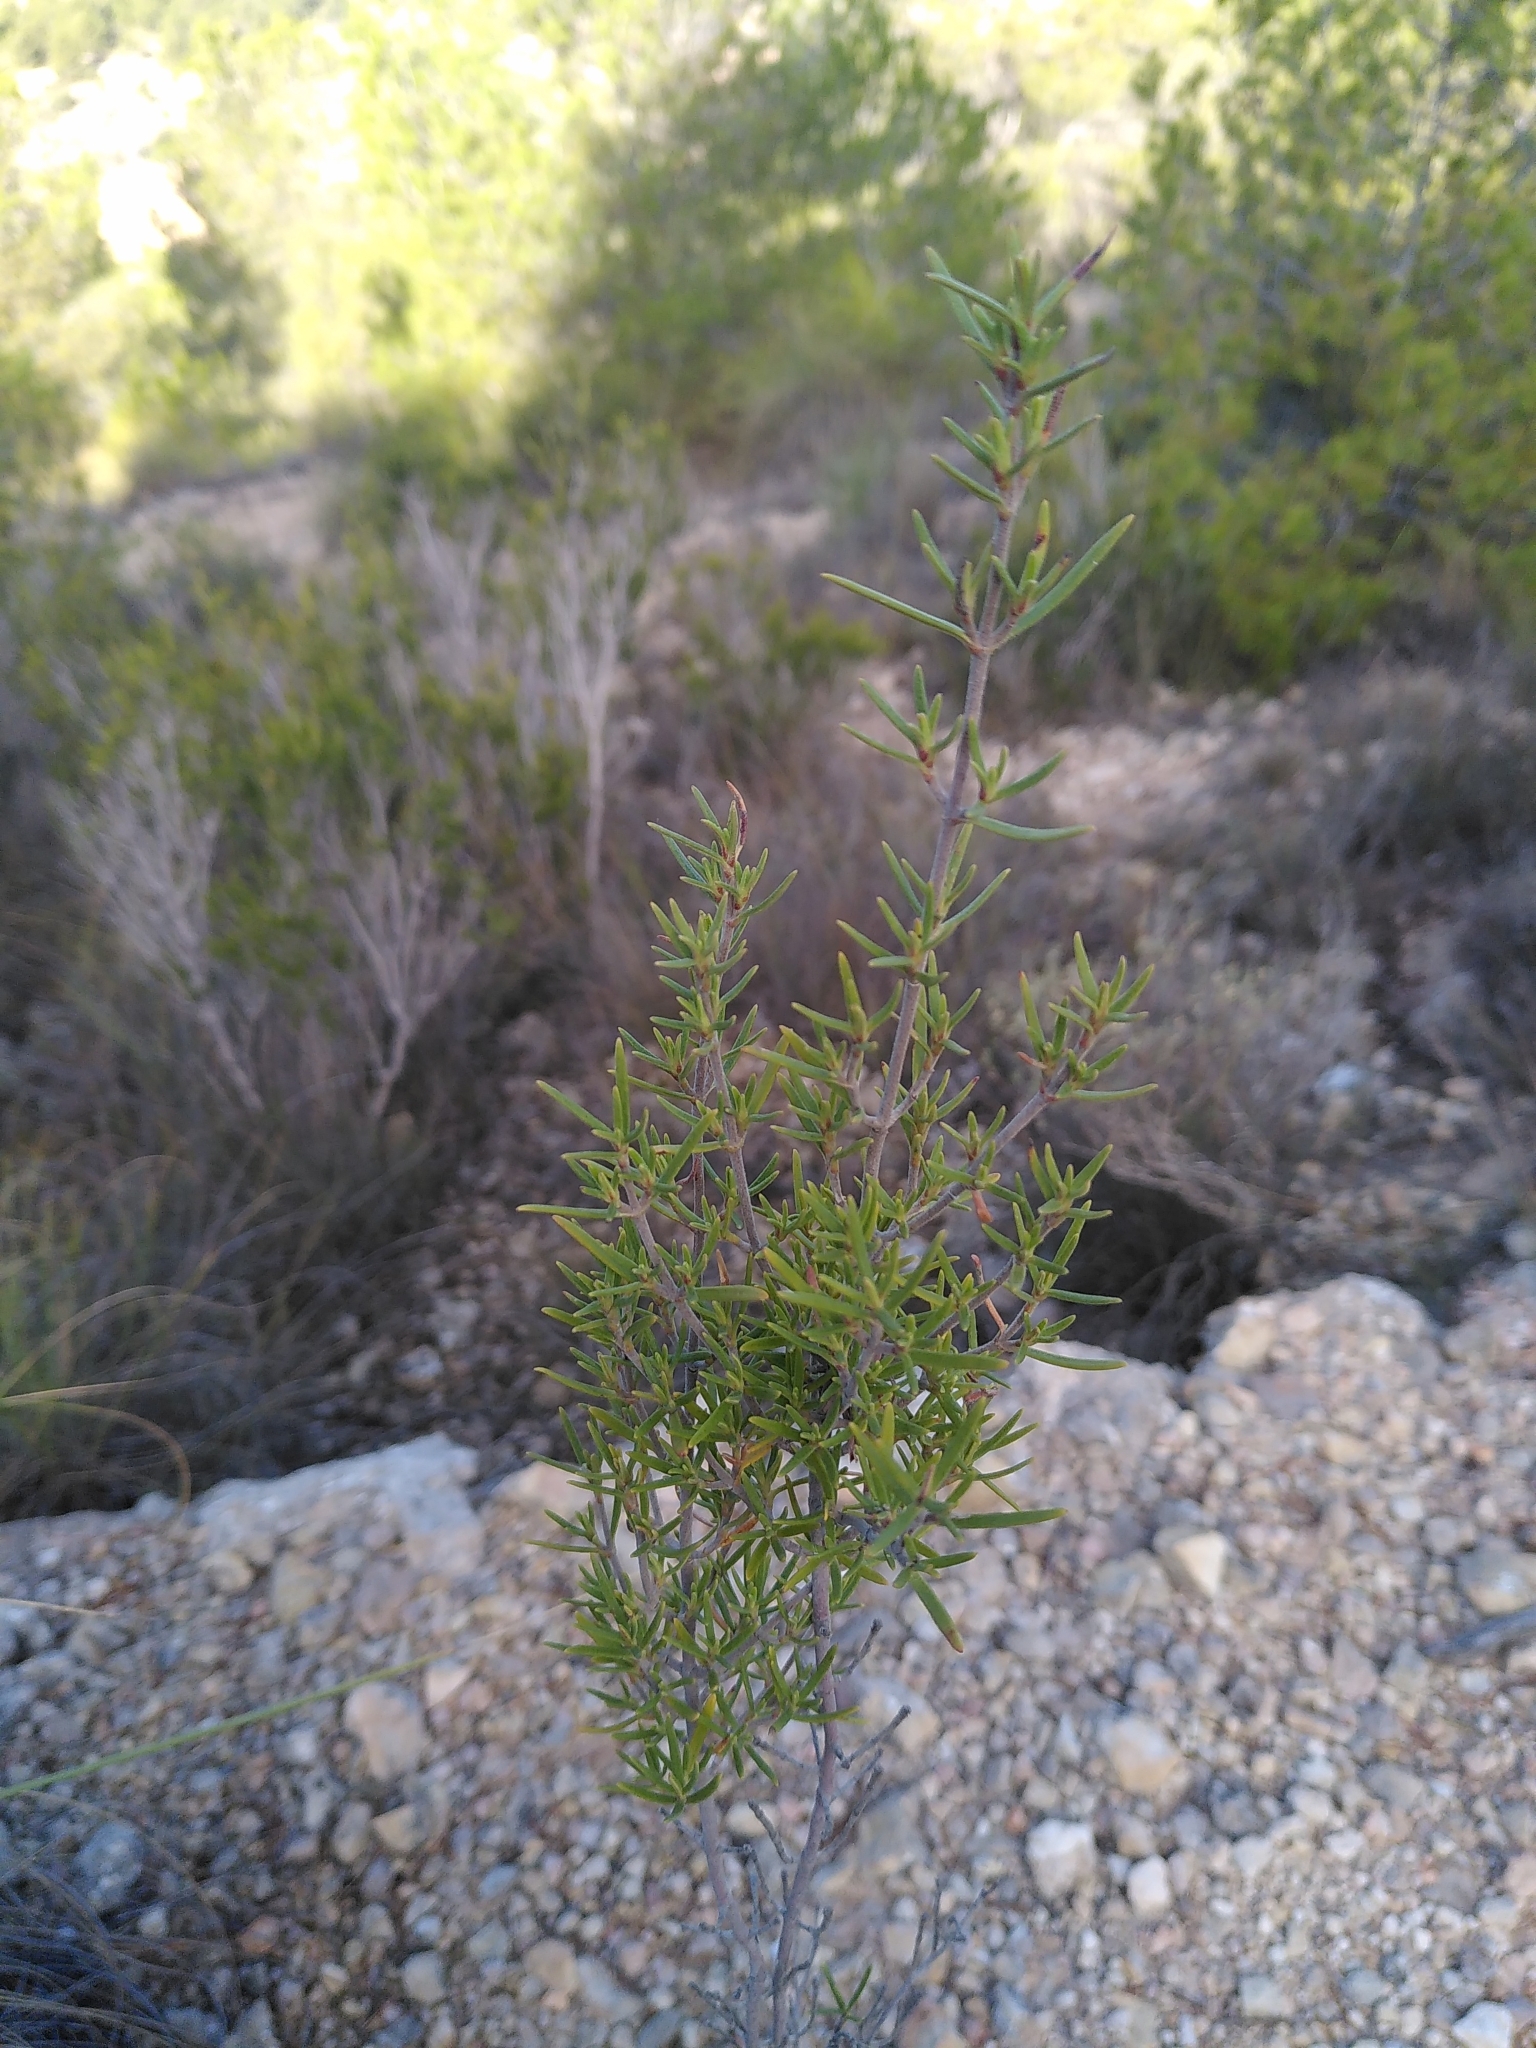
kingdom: Plantae
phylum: Tracheophyta
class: Magnoliopsida
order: Malvales
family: Cistaceae
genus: Cistus
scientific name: Cistus clusii
